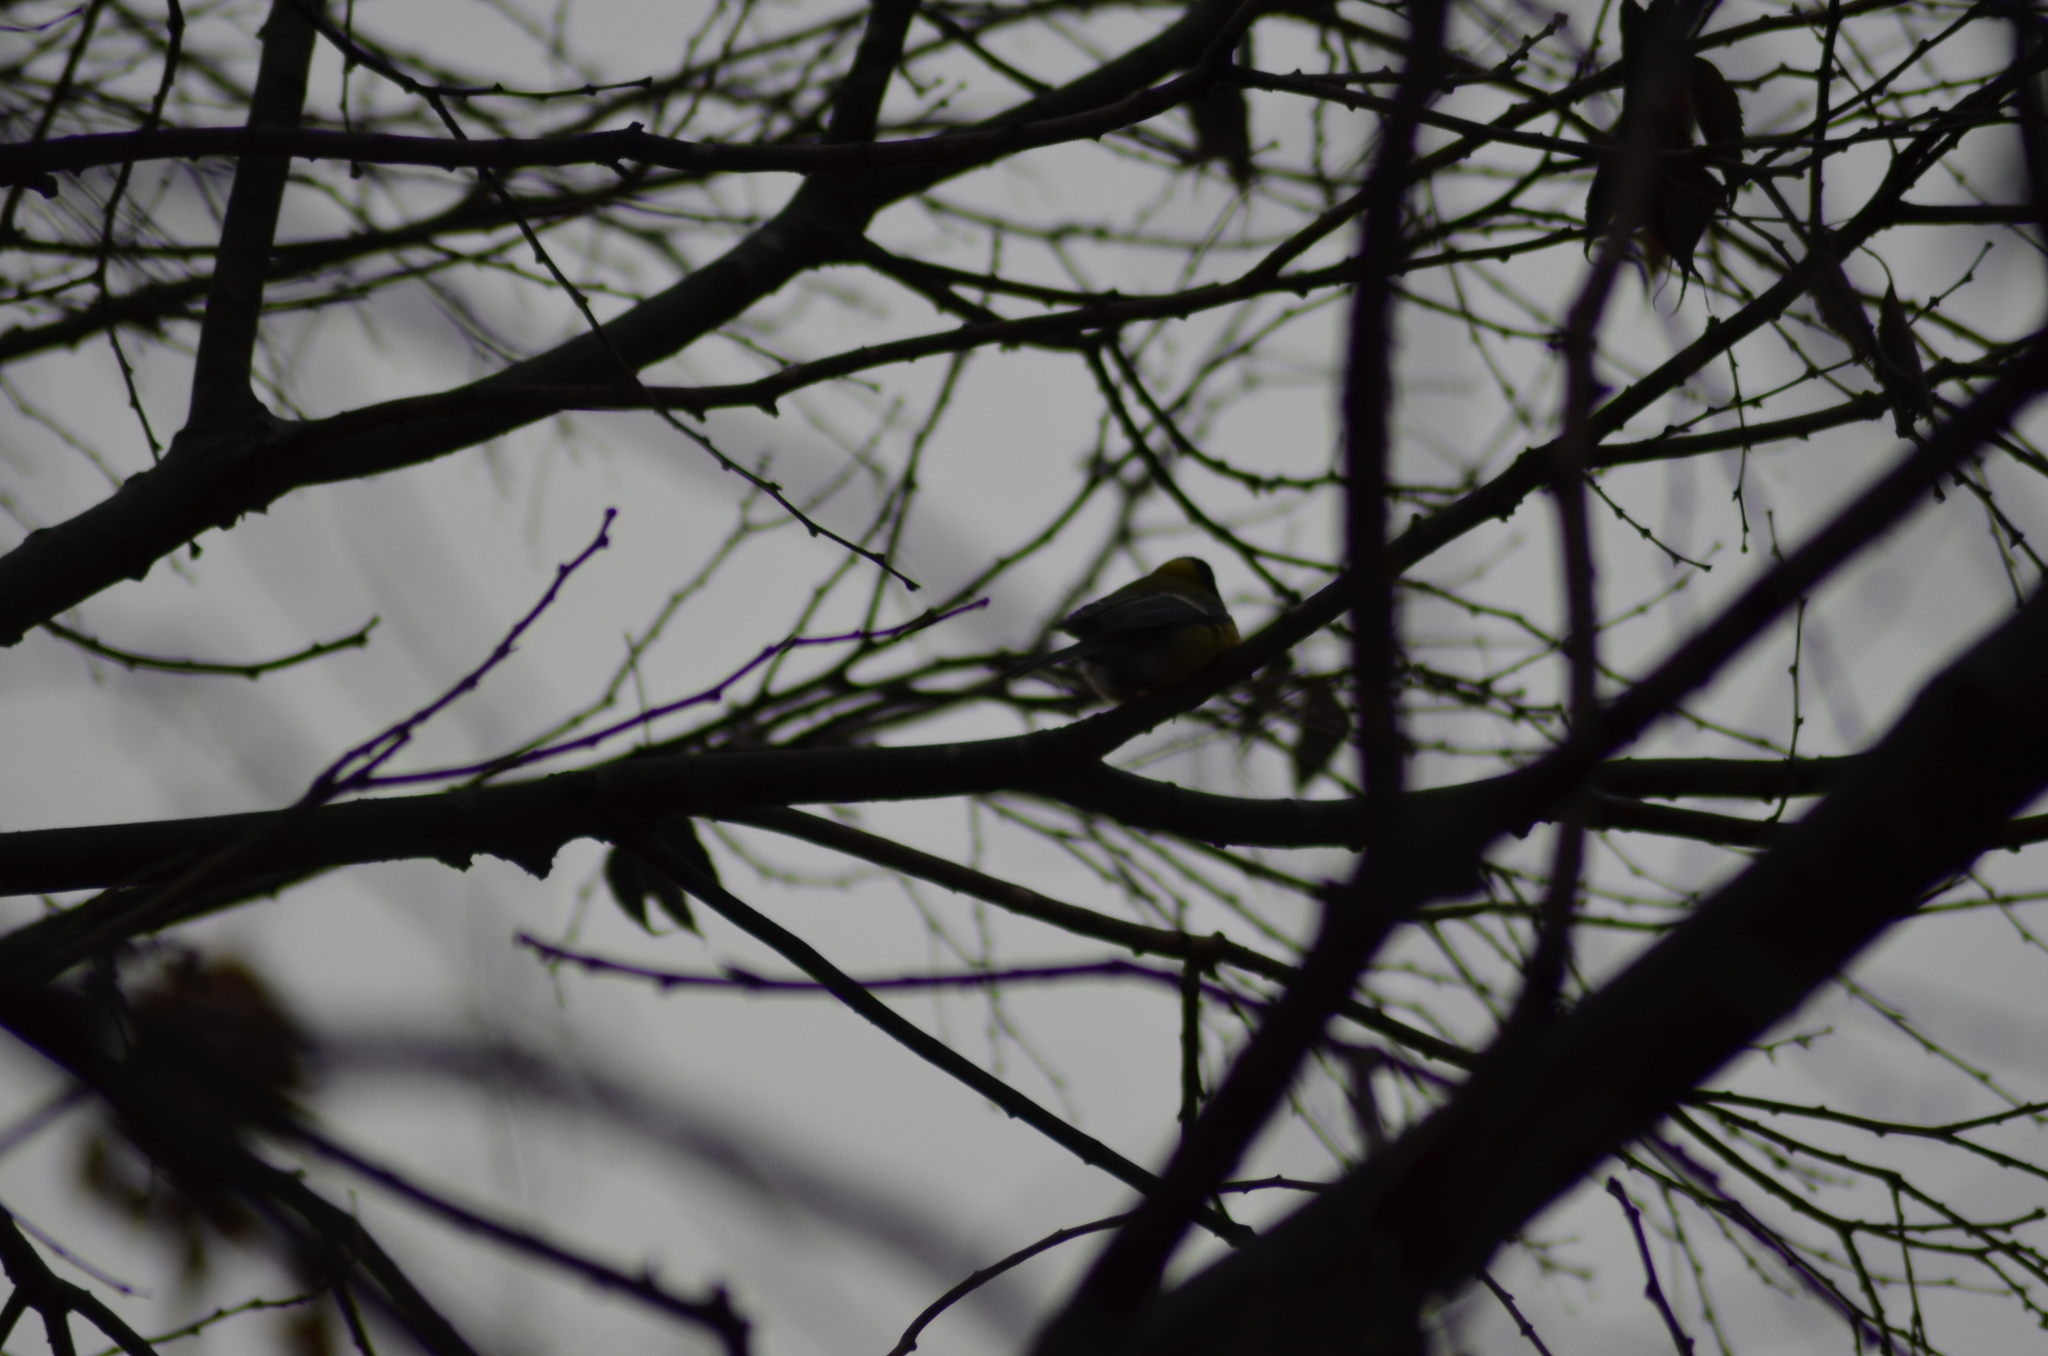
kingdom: Animalia
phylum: Chordata
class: Aves
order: Passeriformes
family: Paridae
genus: Parus
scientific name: Parus major
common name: Great tit
